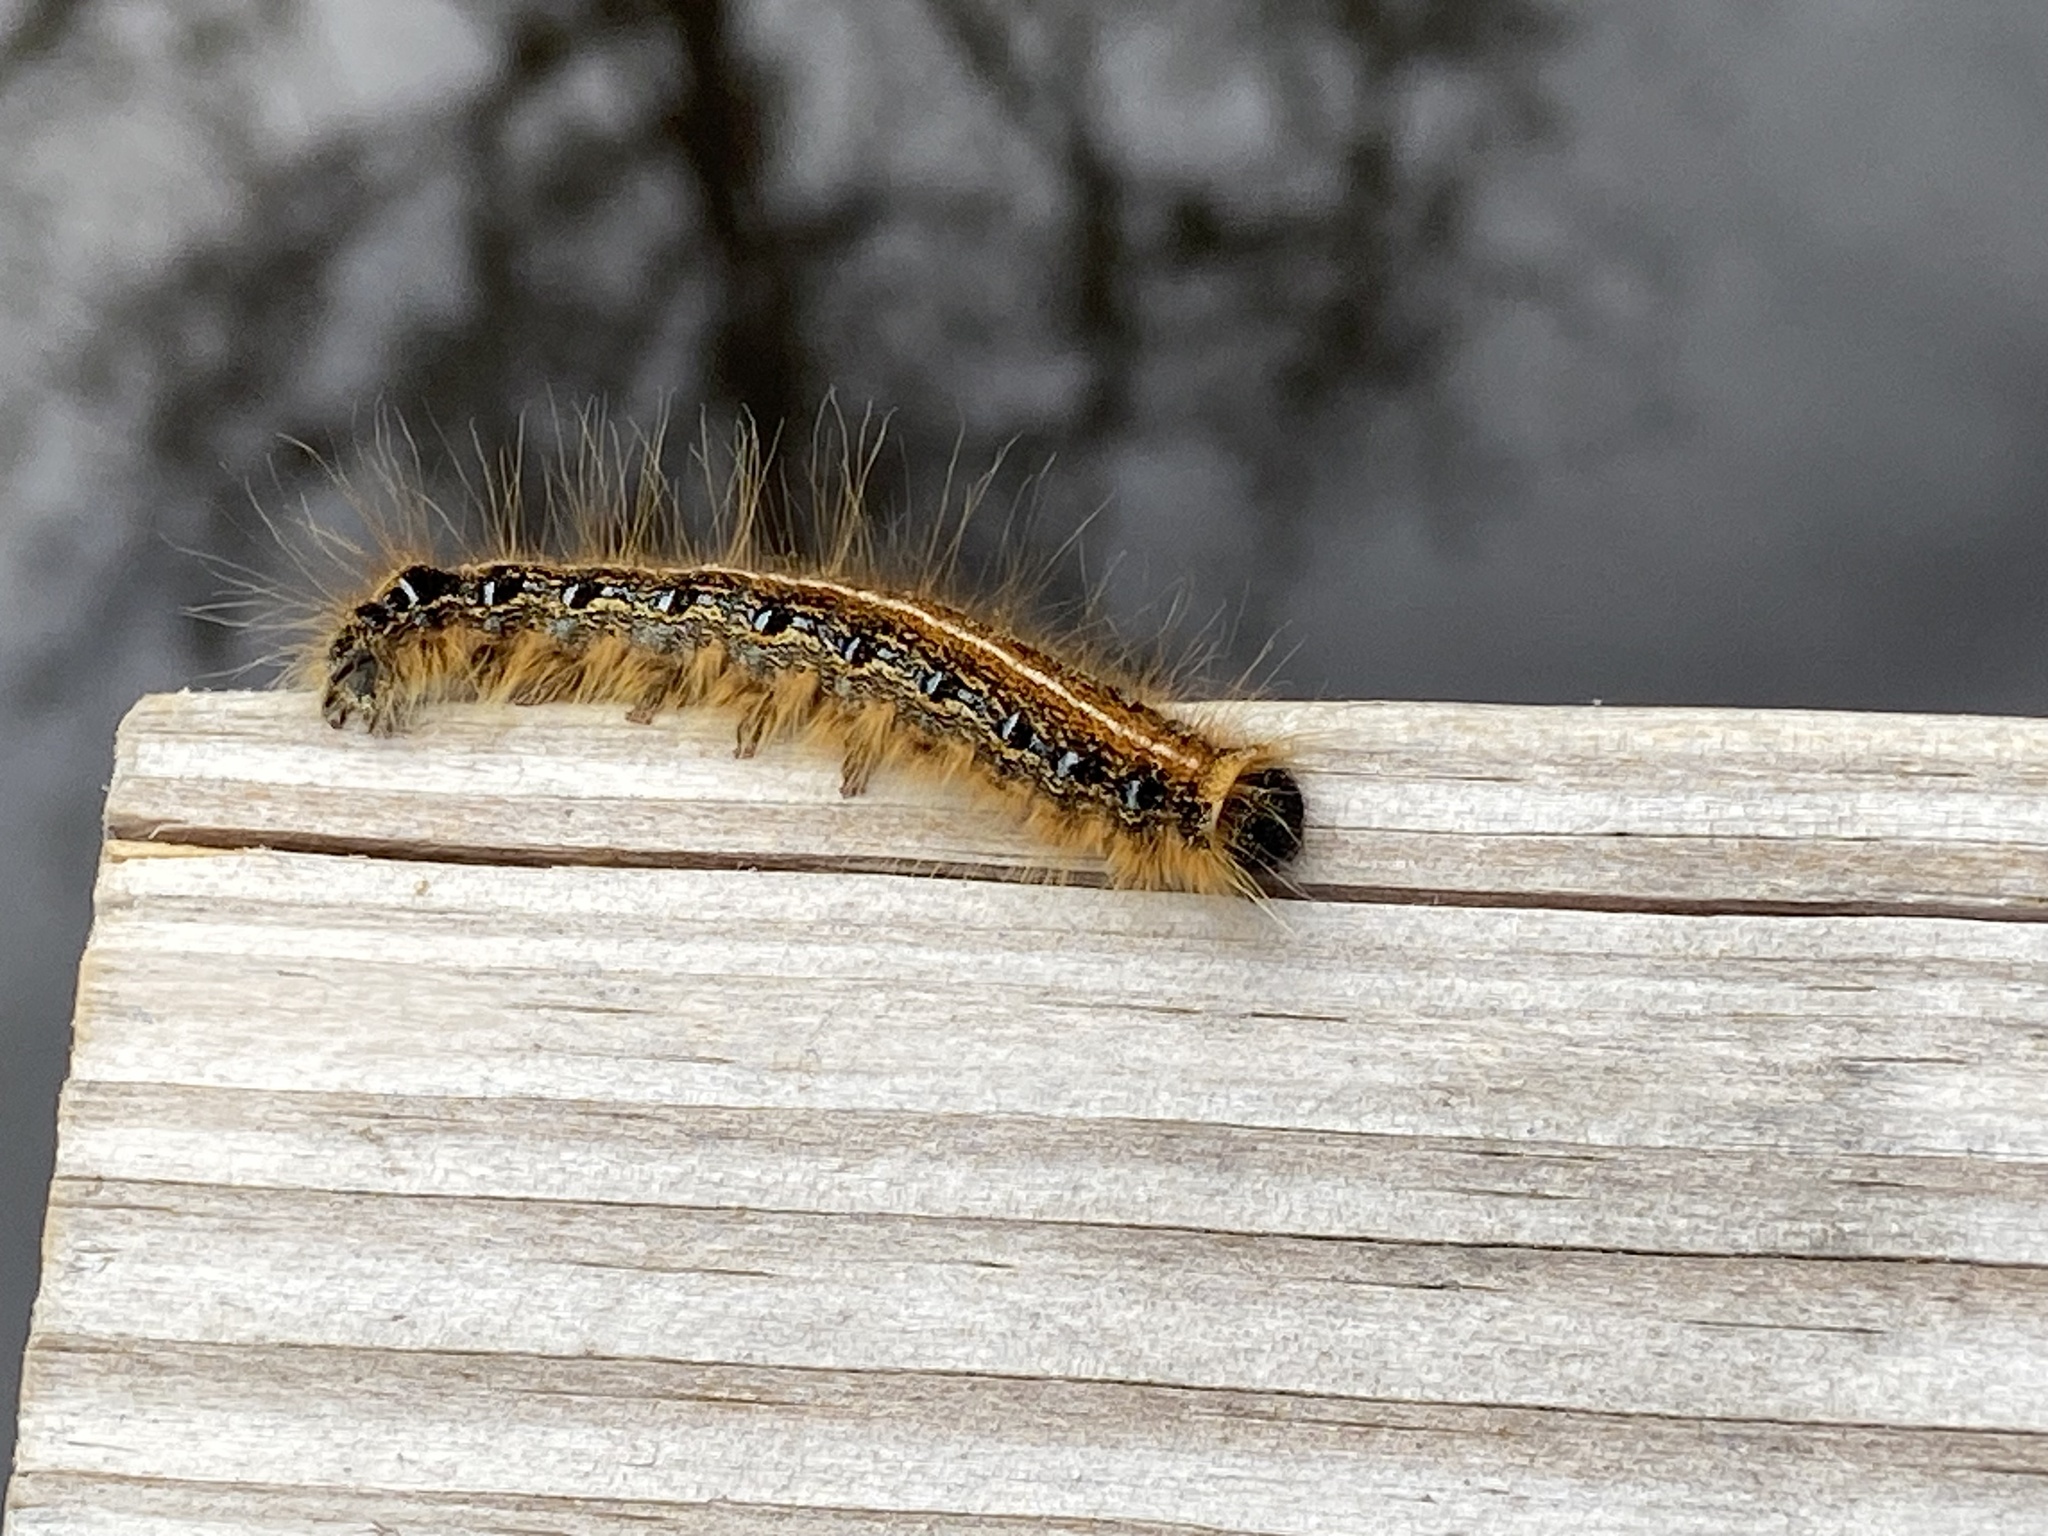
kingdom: Animalia
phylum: Arthropoda
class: Insecta
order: Lepidoptera
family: Lasiocampidae
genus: Malacosoma
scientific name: Malacosoma americana
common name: Eastern tent caterpillar moth
